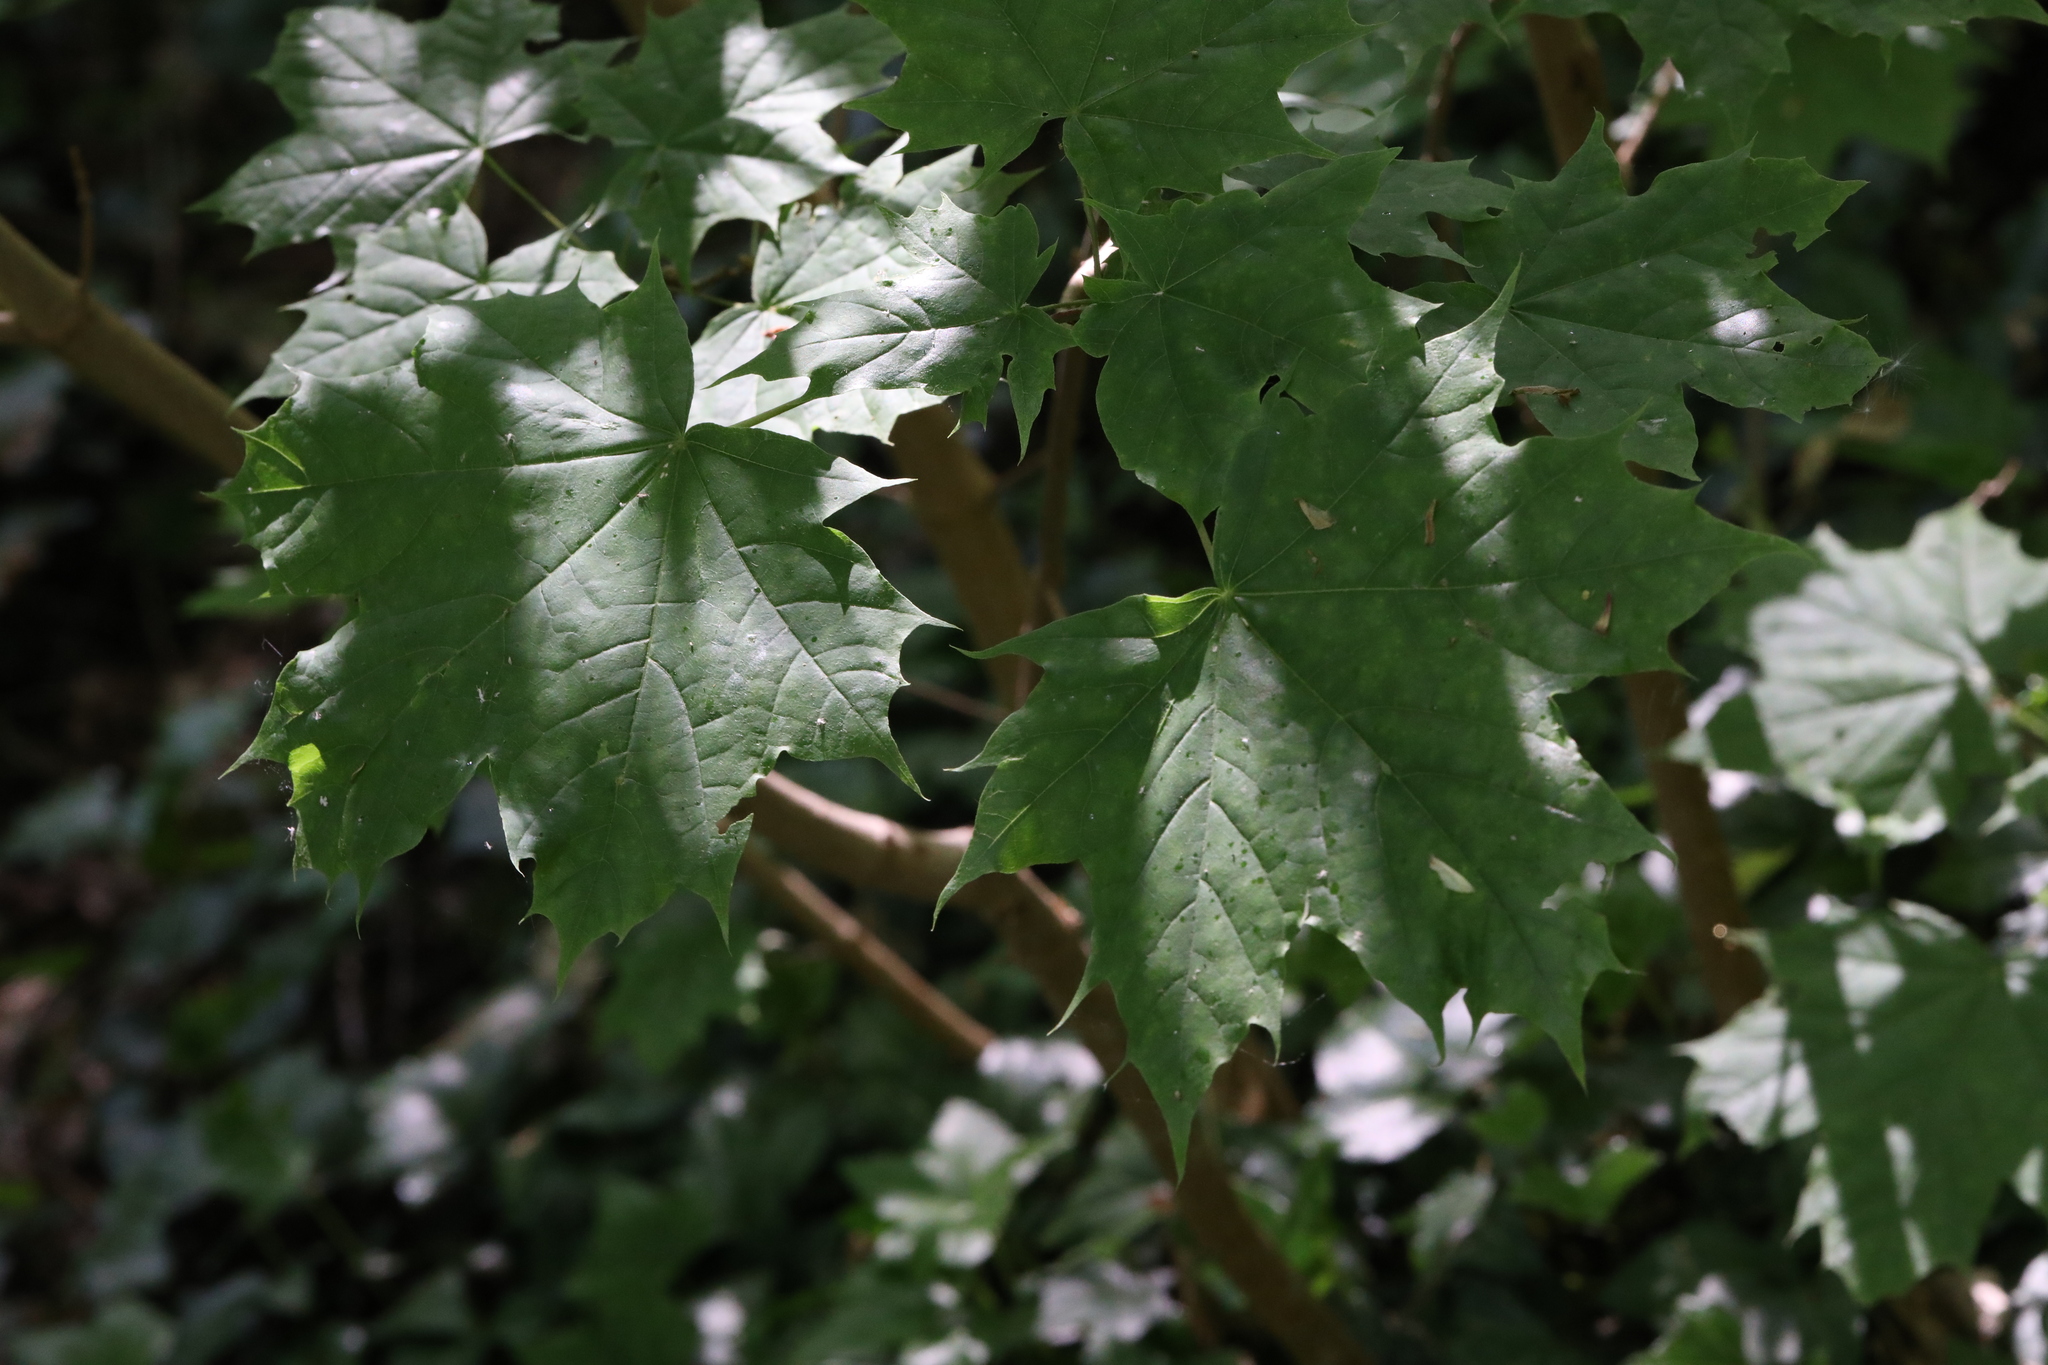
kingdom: Plantae
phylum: Tracheophyta
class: Magnoliopsida
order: Sapindales
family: Sapindaceae
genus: Acer
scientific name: Acer platanoides
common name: Norway maple
